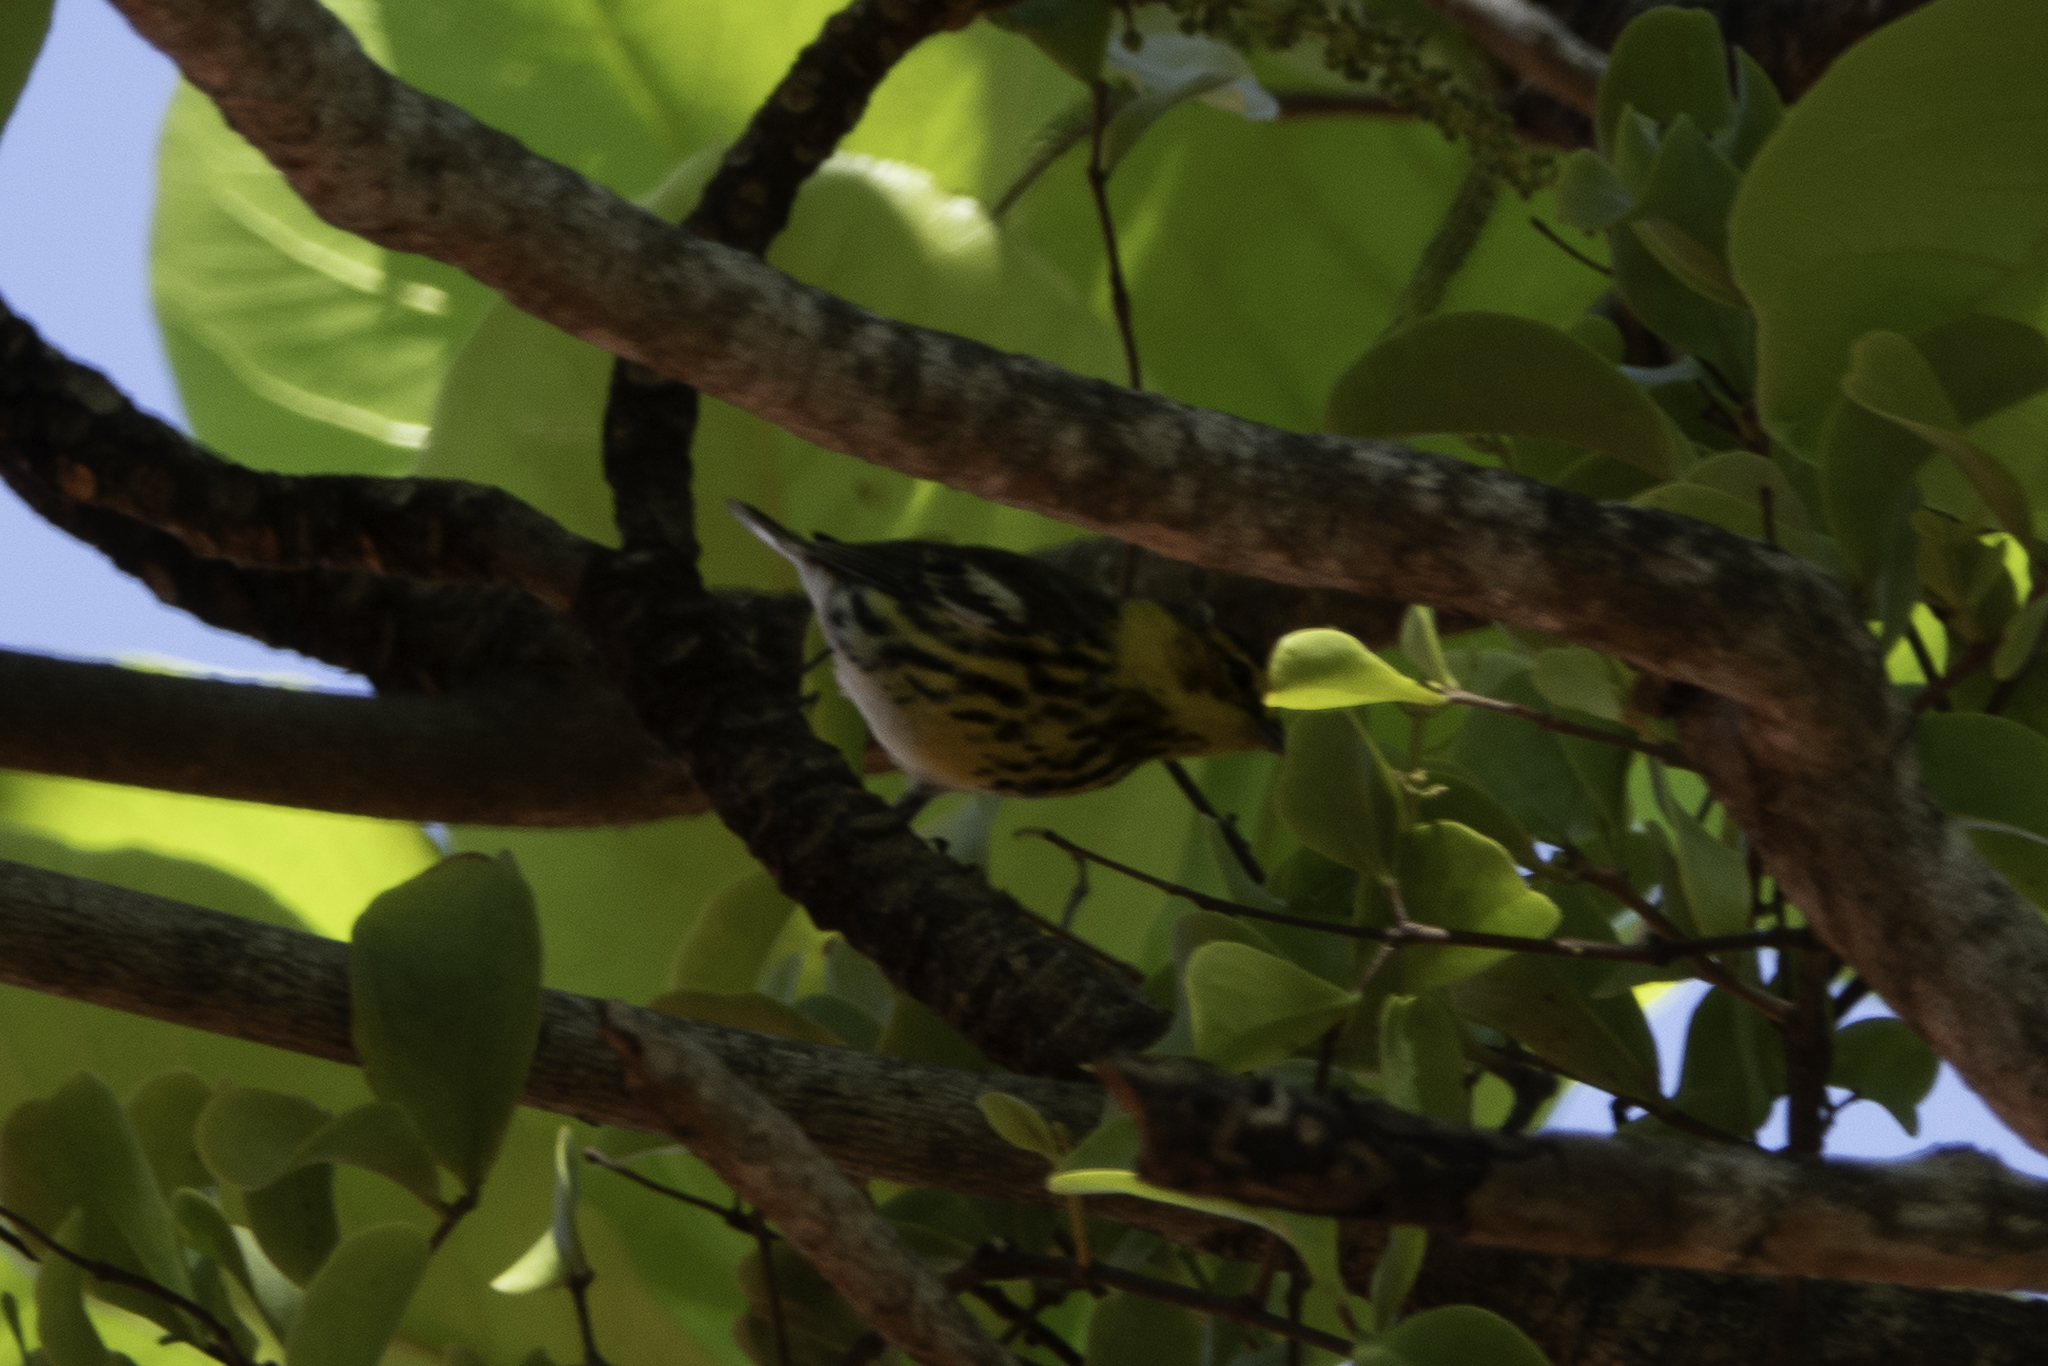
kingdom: Animalia
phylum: Chordata
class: Aves
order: Passeriformes
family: Parulidae
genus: Setophaga
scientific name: Setophaga tigrina
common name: Cape may warbler
